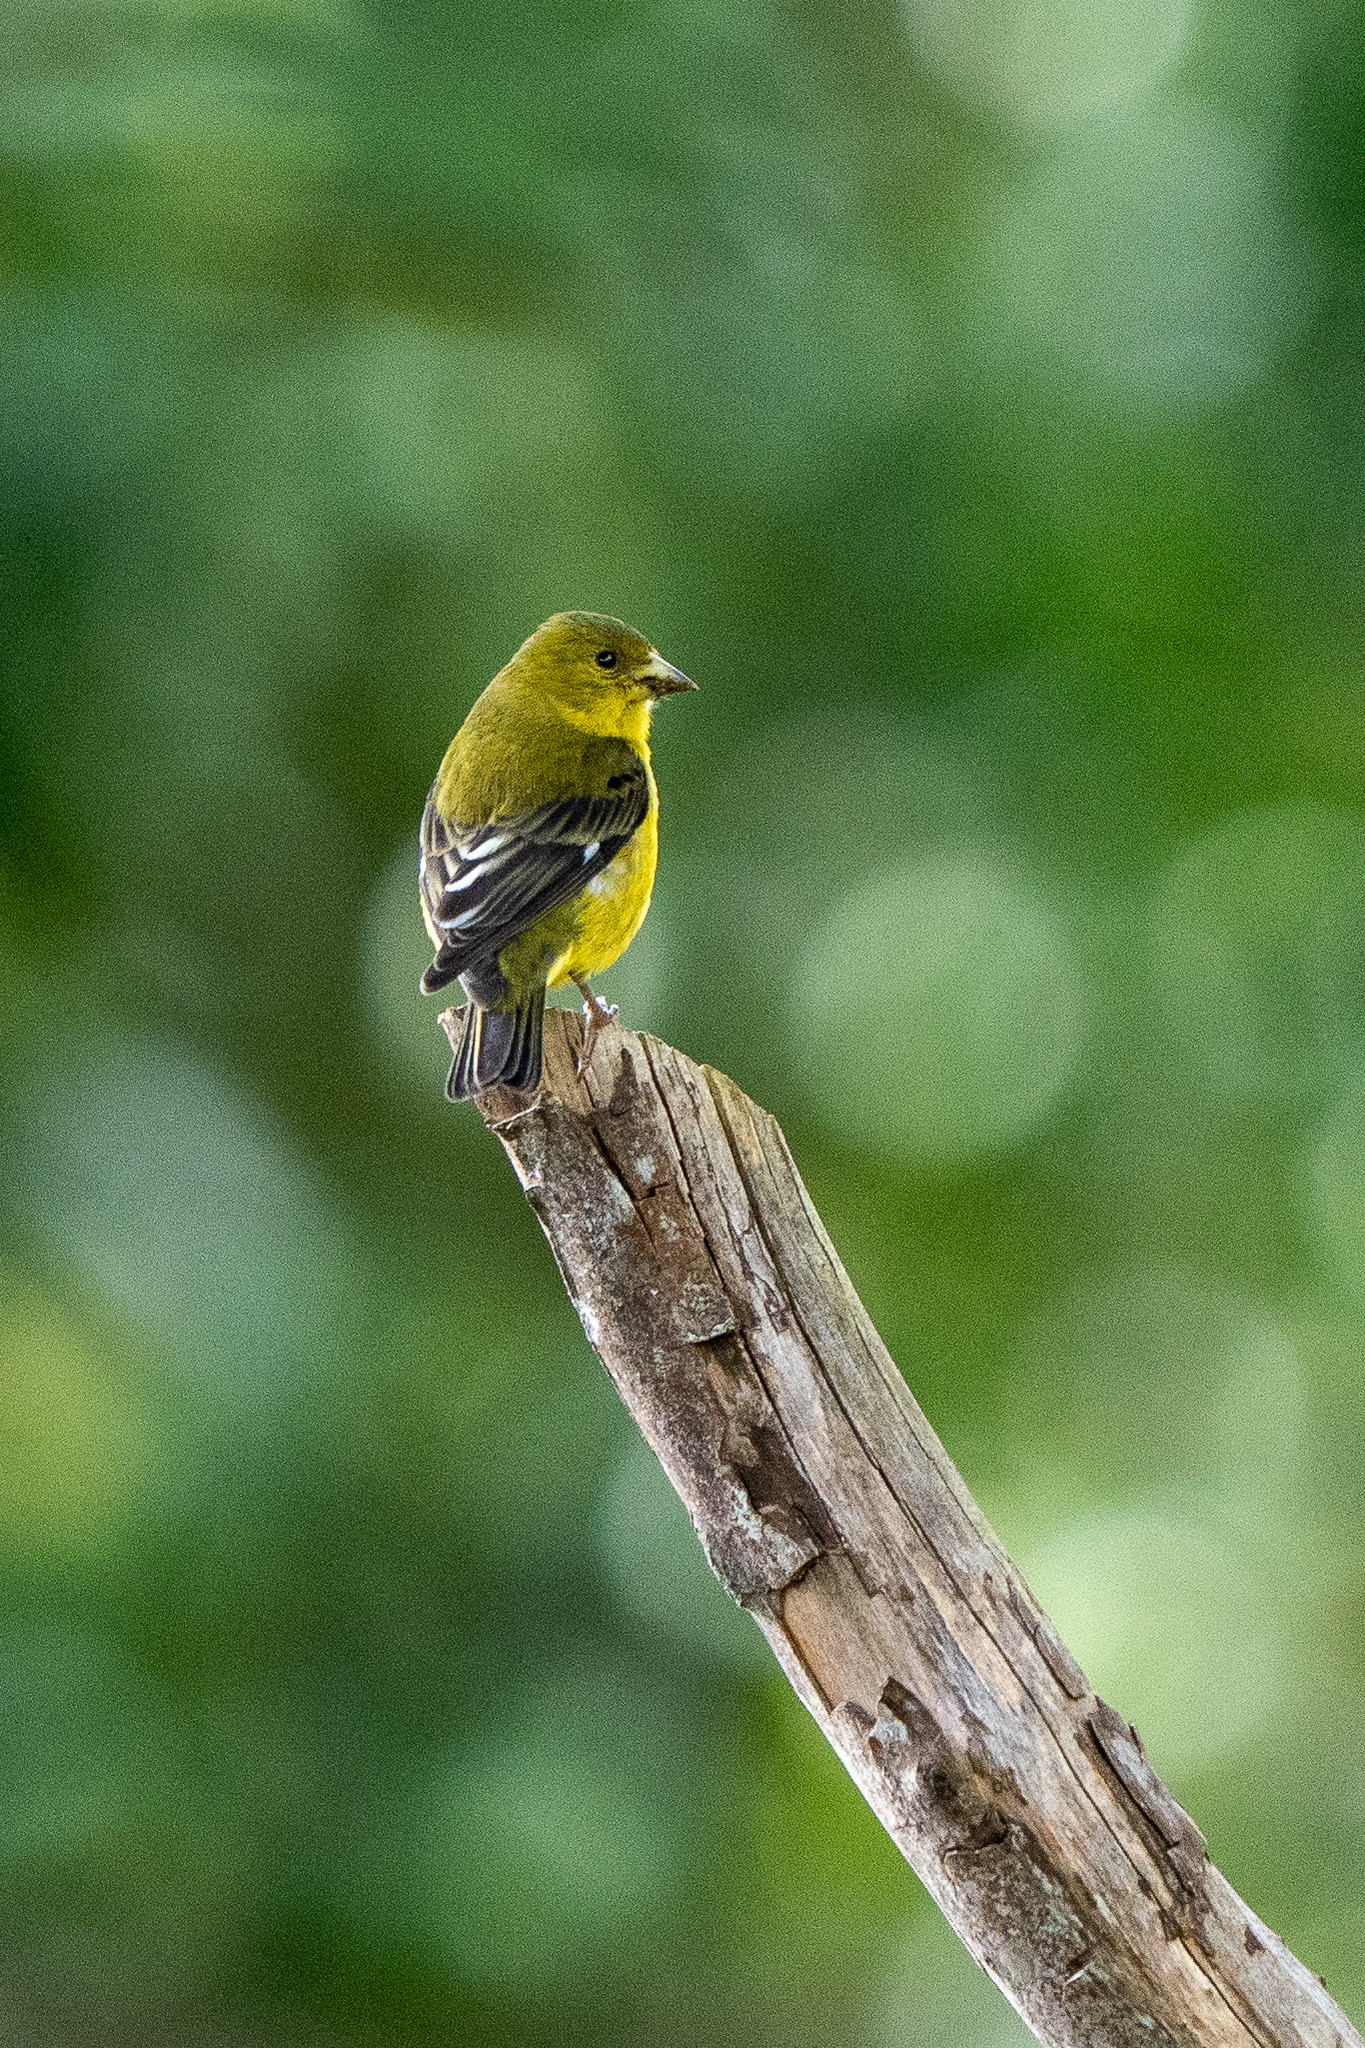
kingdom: Animalia
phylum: Chordata
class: Aves
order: Passeriformes
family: Fringillidae
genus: Spinus
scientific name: Spinus psaltria
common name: Lesser goldfinch
